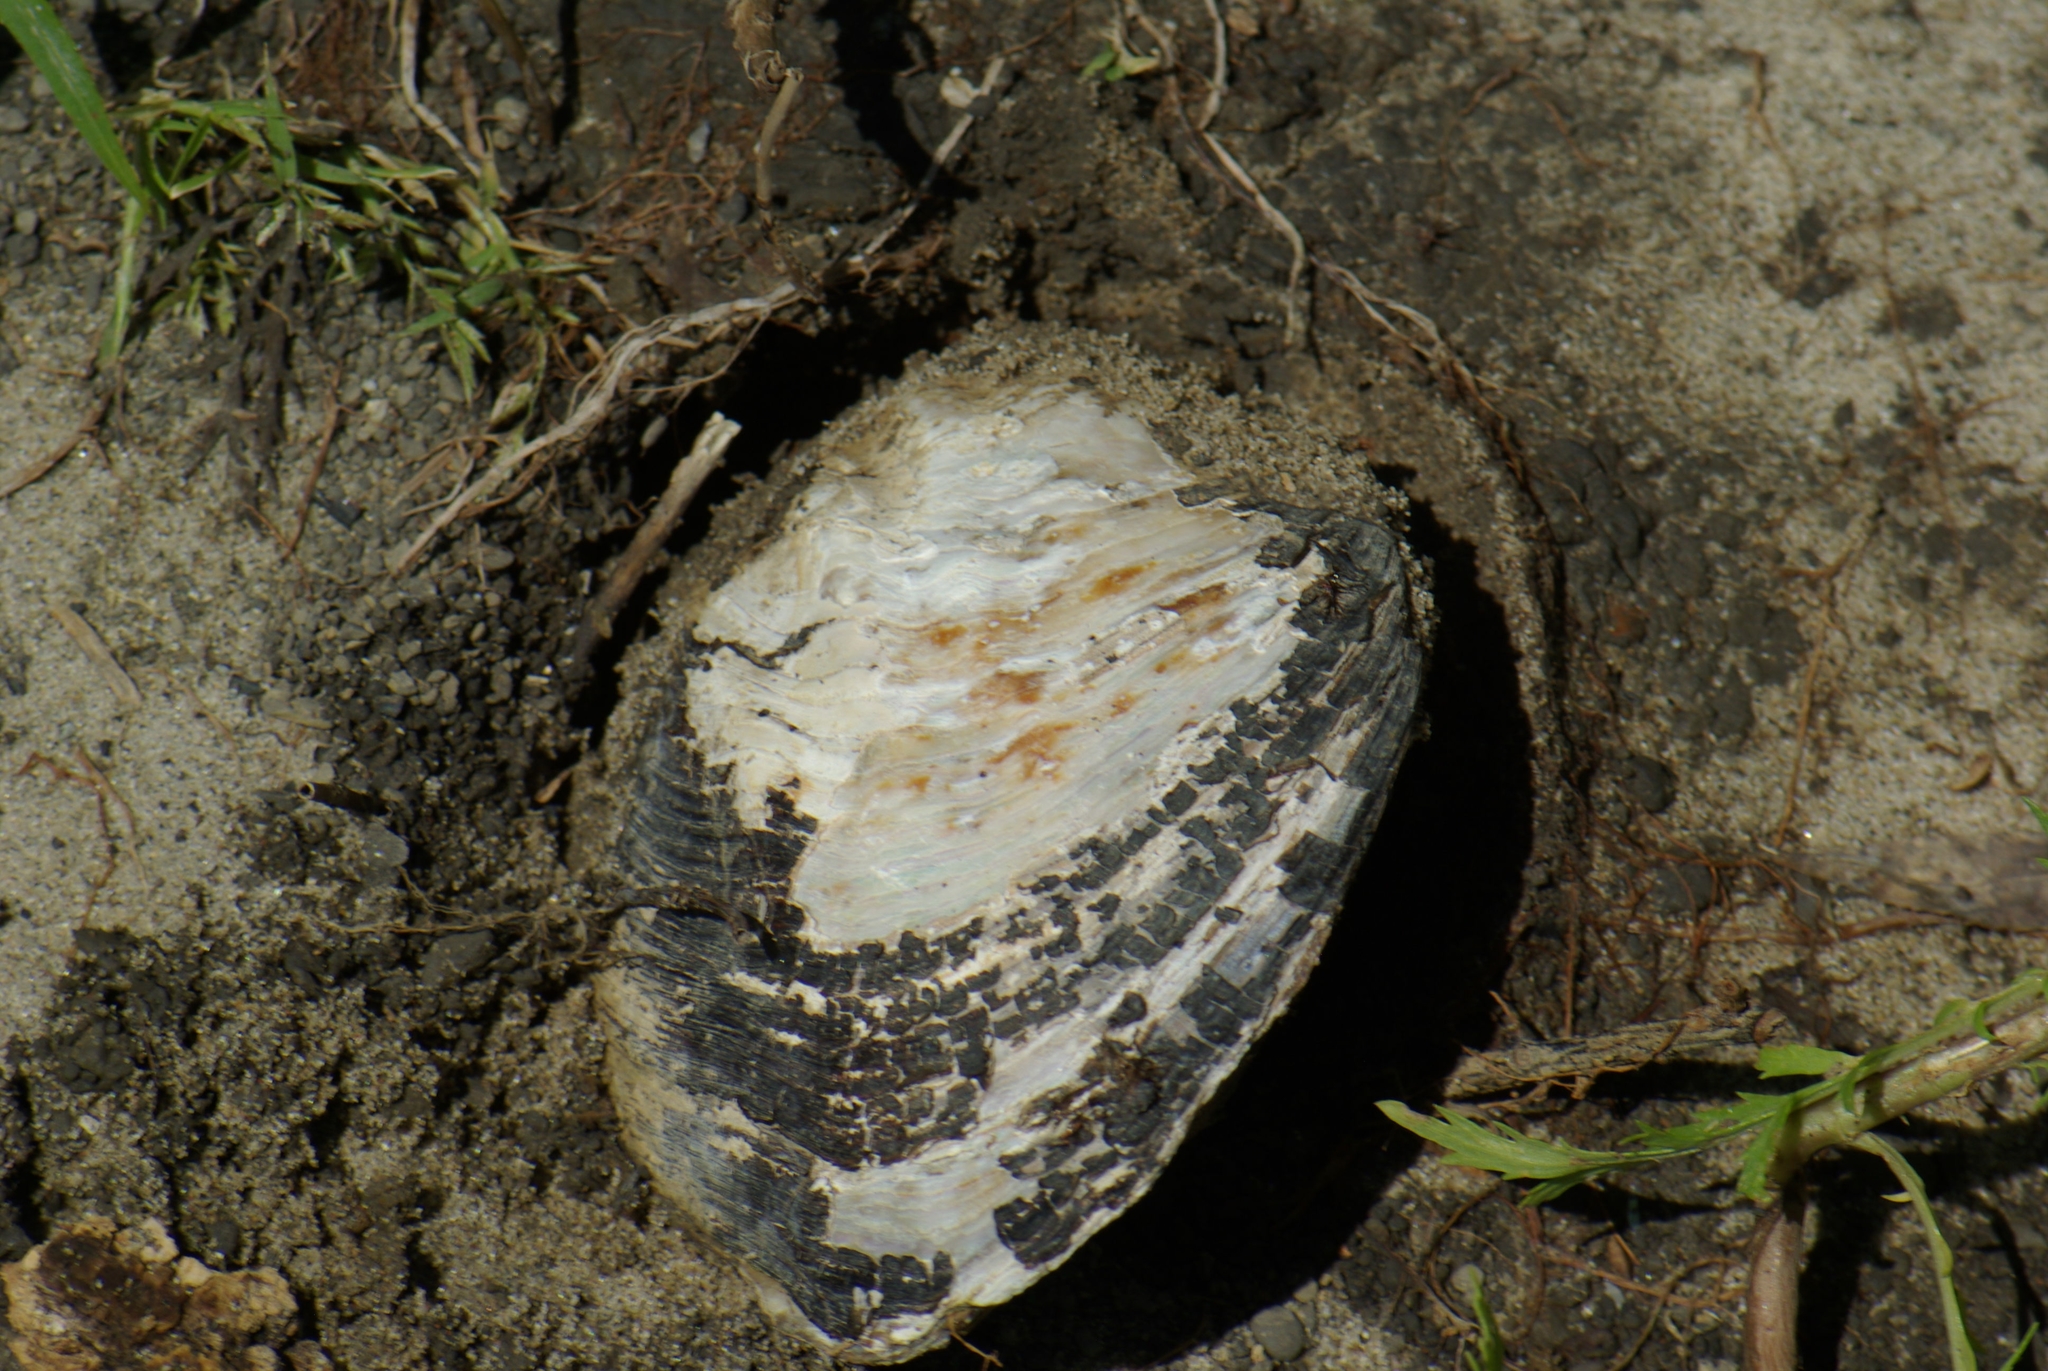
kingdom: Animalia
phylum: Mollusca
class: Bivalvia
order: Unionida
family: Unionidae
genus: Amblema
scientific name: Amblema plicata
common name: Threeridge
